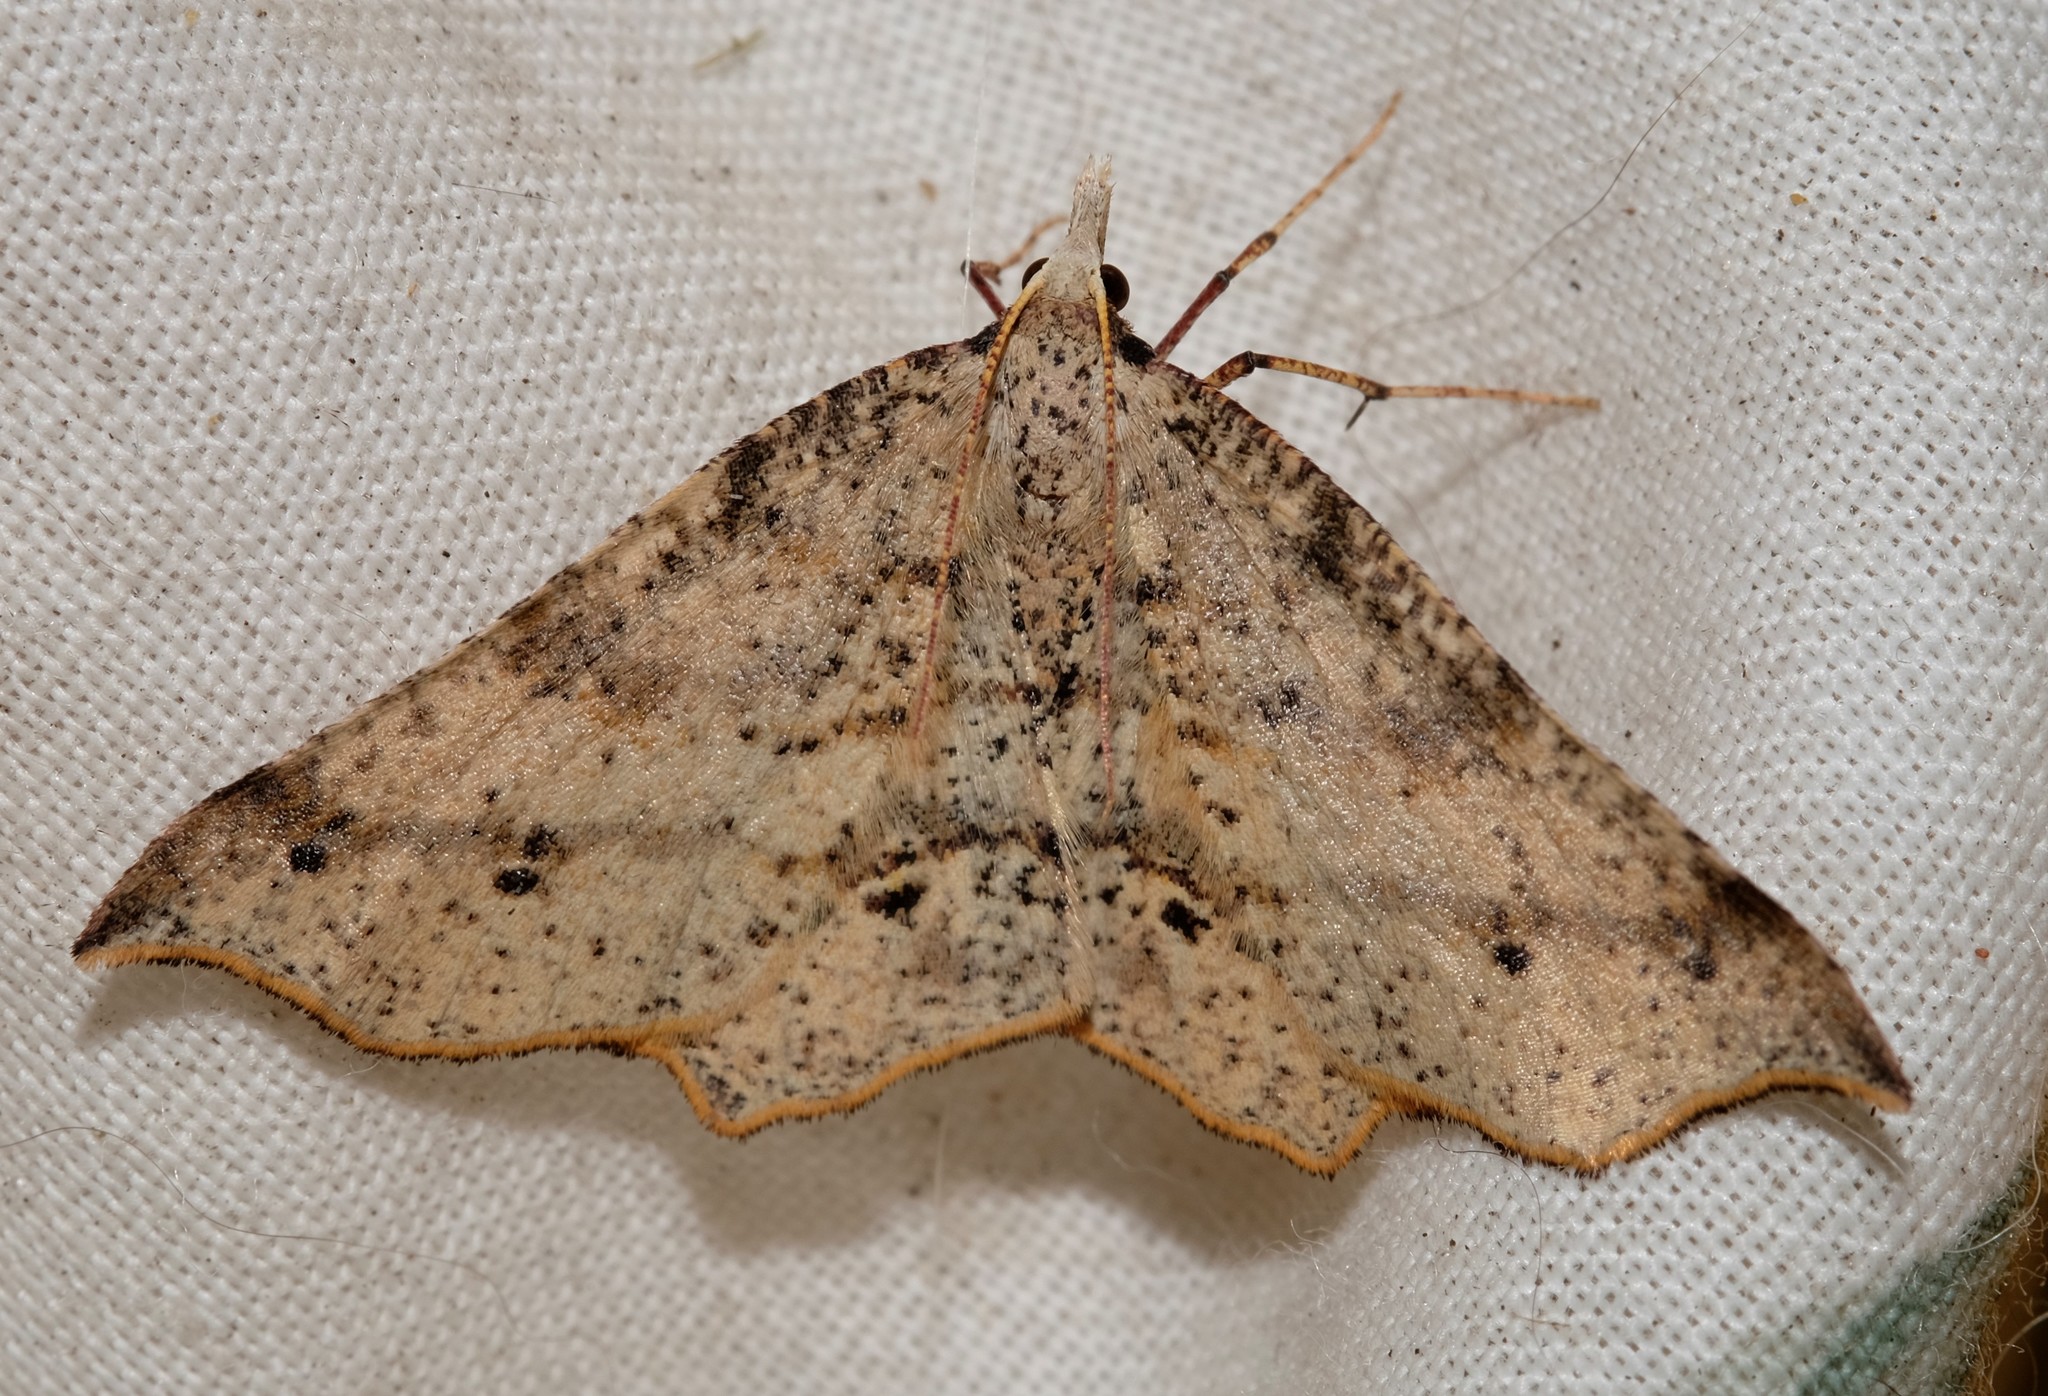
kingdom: Animalia
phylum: Arthropoda
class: Insecta
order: Lepidoptera
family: Geometridae
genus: Rhinodia
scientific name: Rhinodia rostraria
